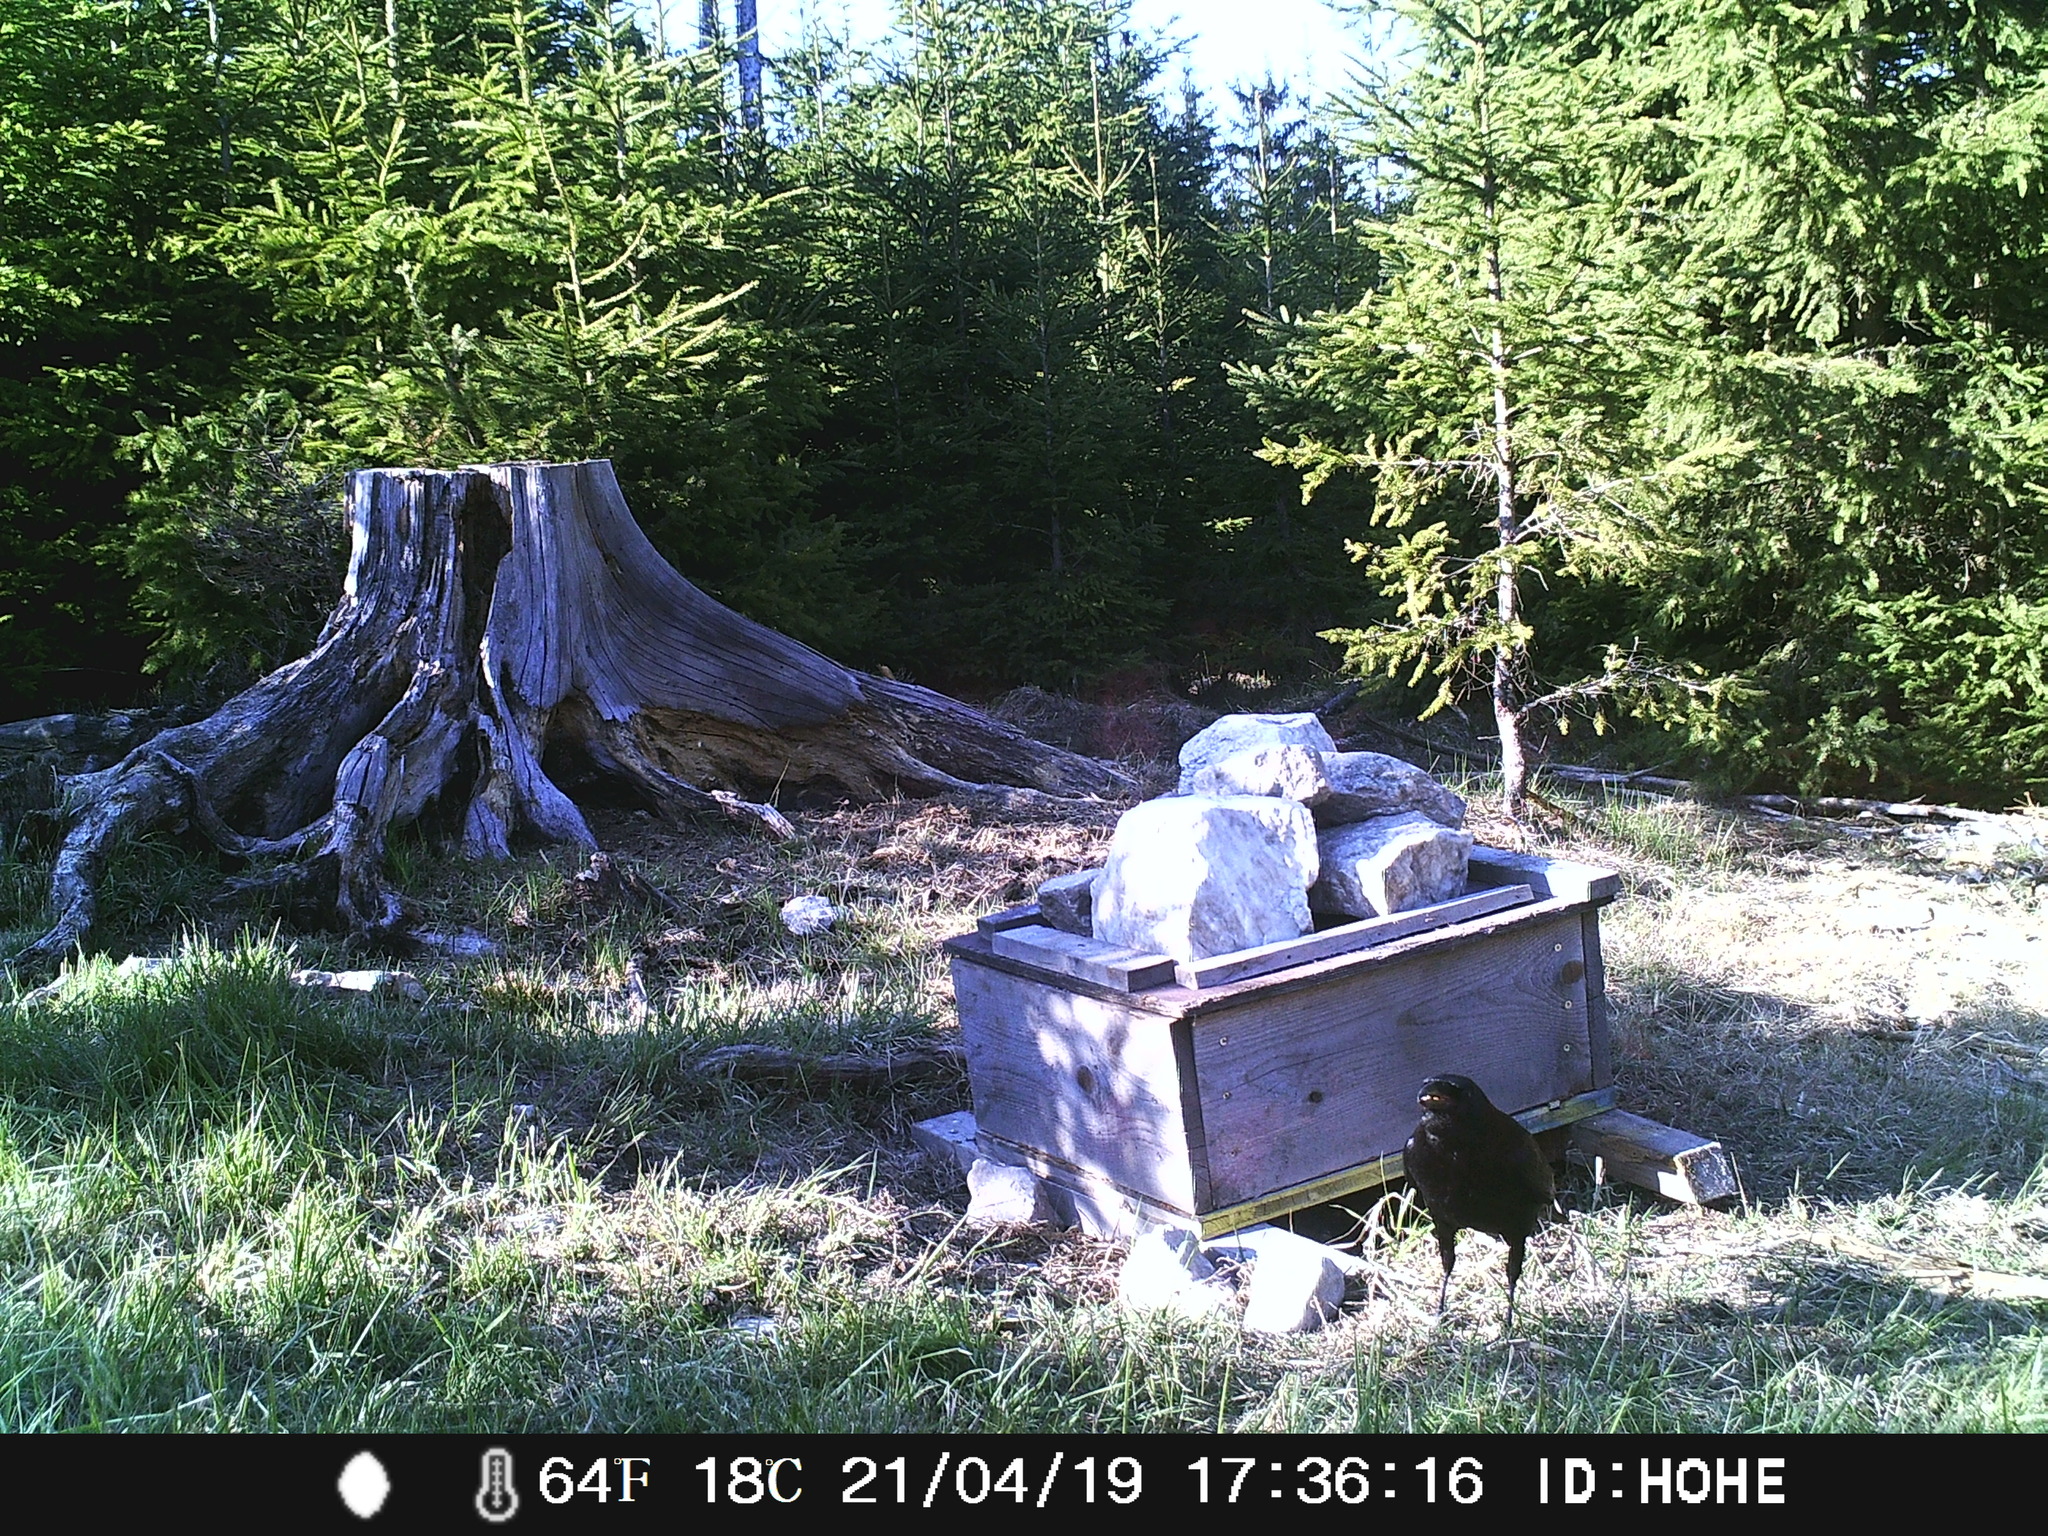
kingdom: Animalia
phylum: Chordata
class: Aves
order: Passeriformes
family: Corvidae
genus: Corvus
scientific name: Corvus corax
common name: Common raven
